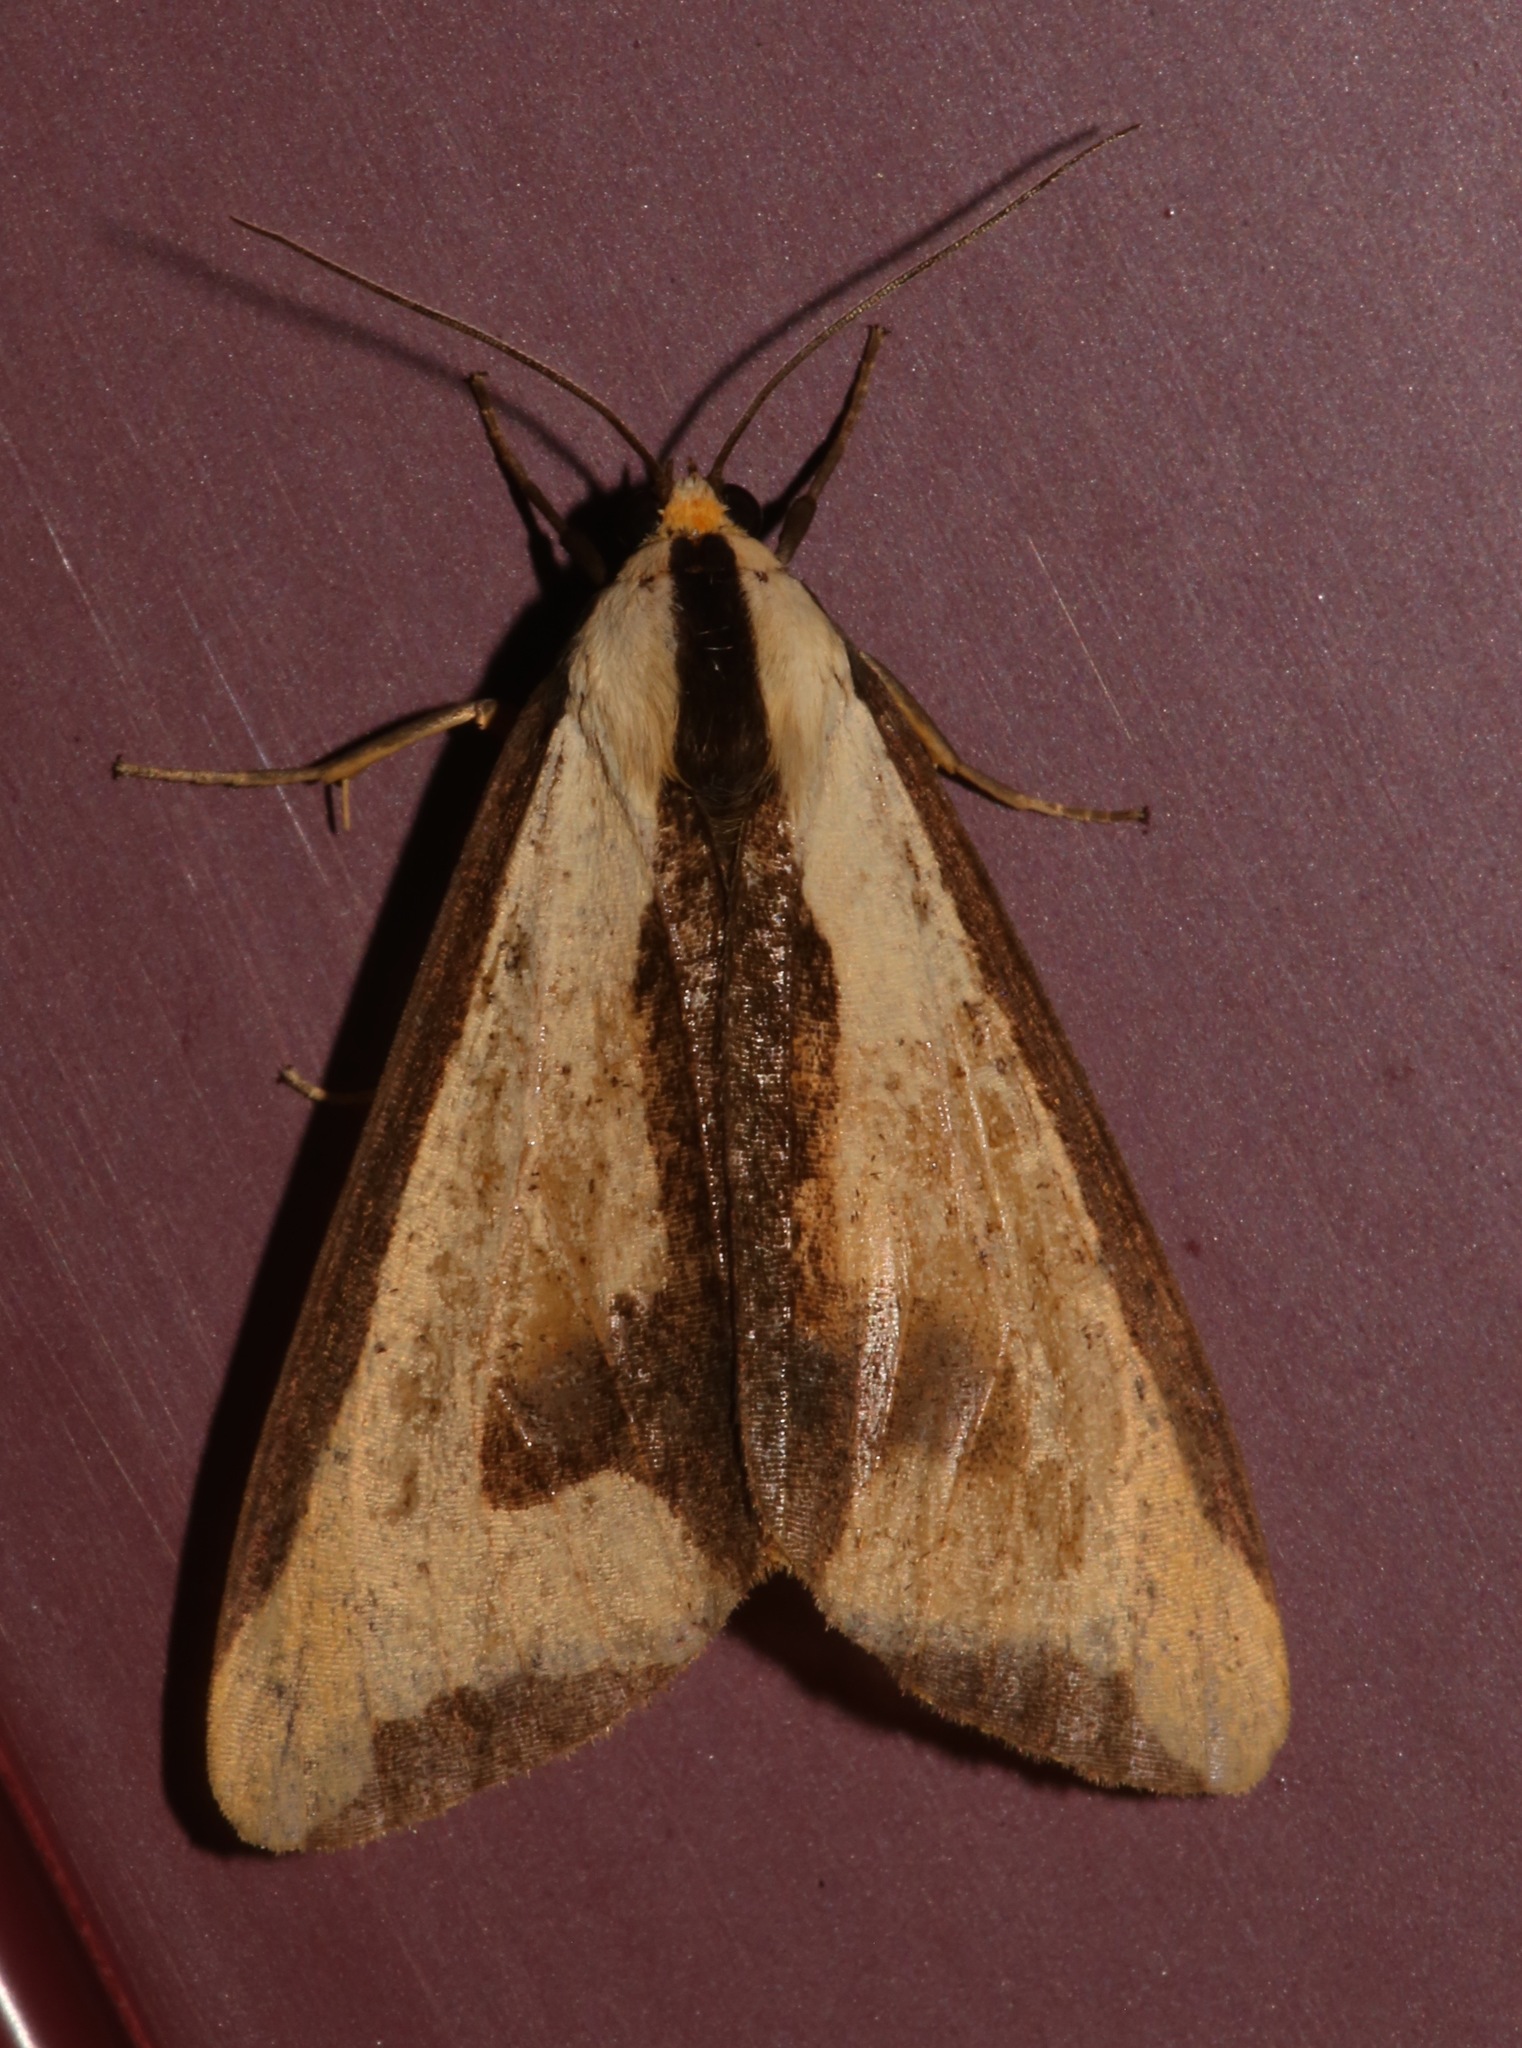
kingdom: Animalia
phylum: Arthropoda
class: Insecta
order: Lepidoptera
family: Erebidae
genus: Haploa
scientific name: Haploa clymene
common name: Clymene moth
